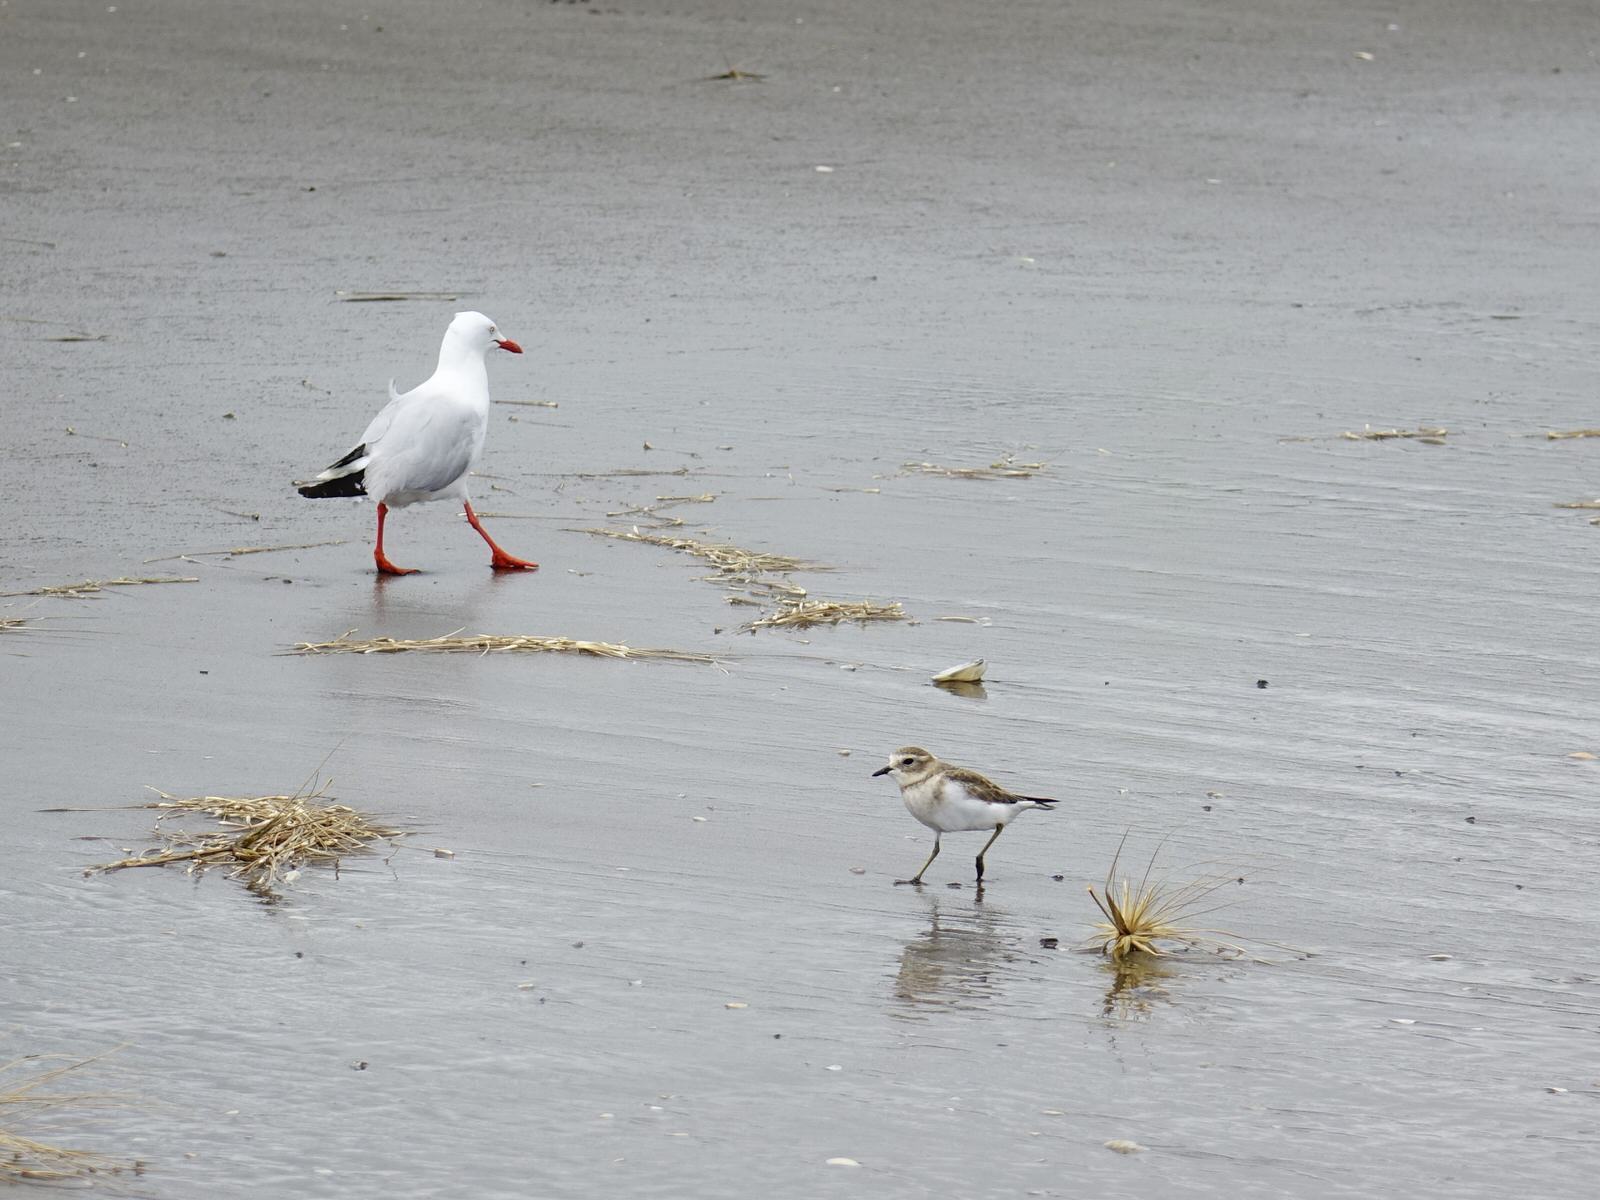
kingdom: Animalia
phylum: Chordata
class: Aves
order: Charadriiformes
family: Charadriidae
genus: Anarhynchus
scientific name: Anarhynchus
